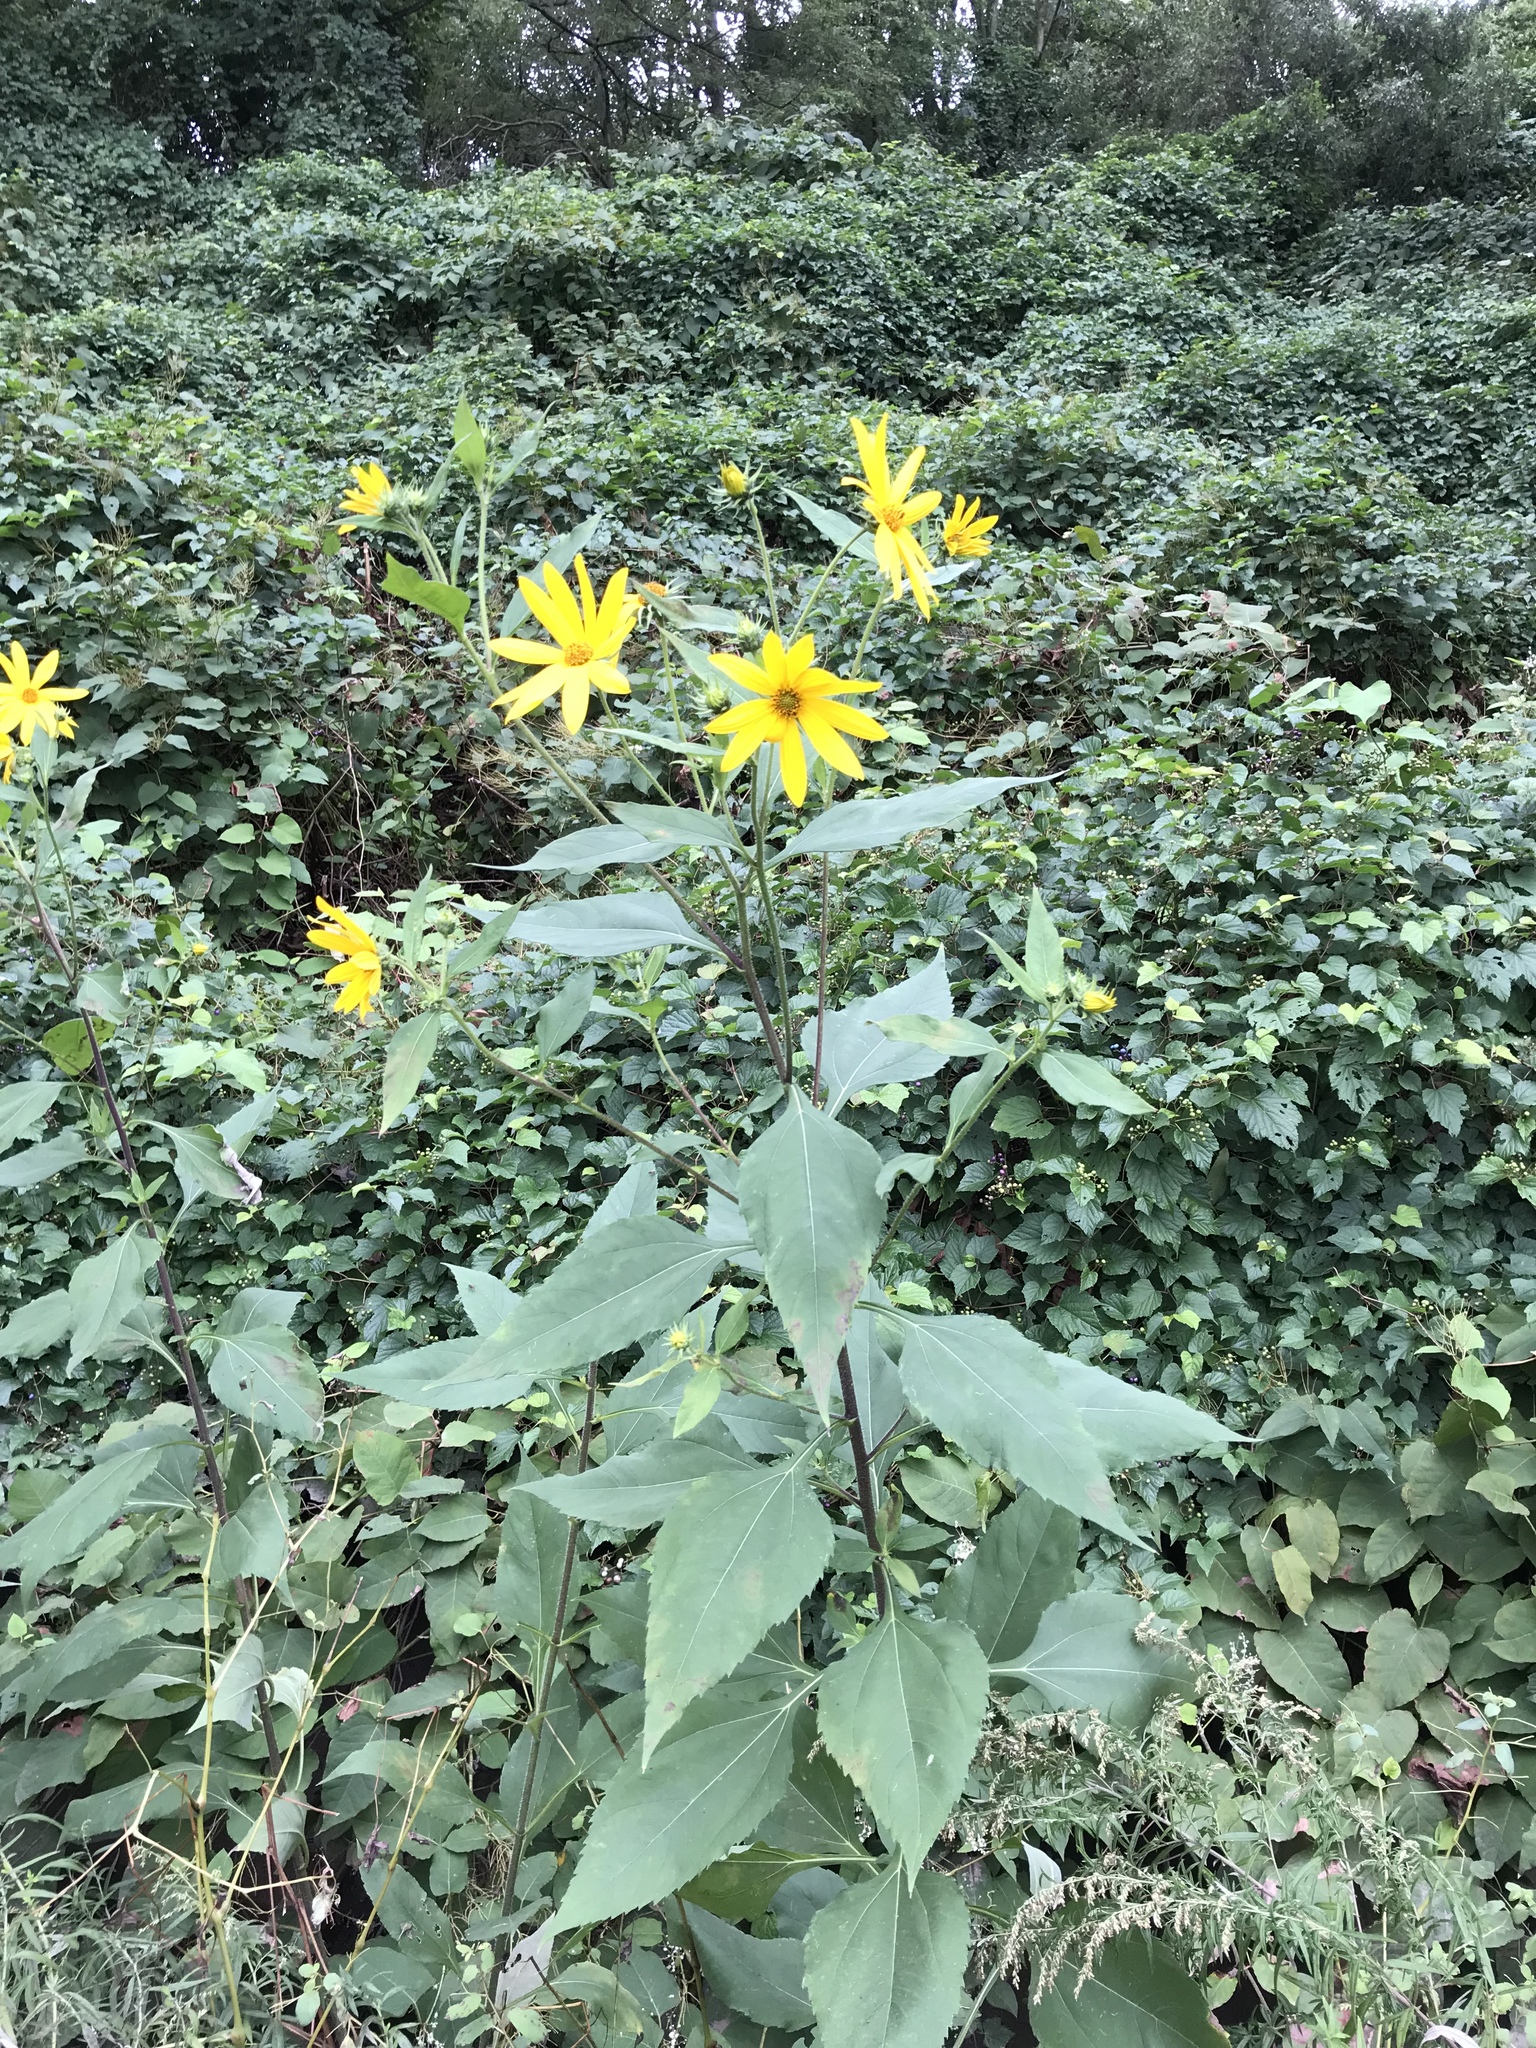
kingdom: Plantae
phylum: Tracheophyta
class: Magnoliopsida
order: Asterales
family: Asteraceae
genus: Helianthus
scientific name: Helianthus tuberosus
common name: Jerusalem artichoke
